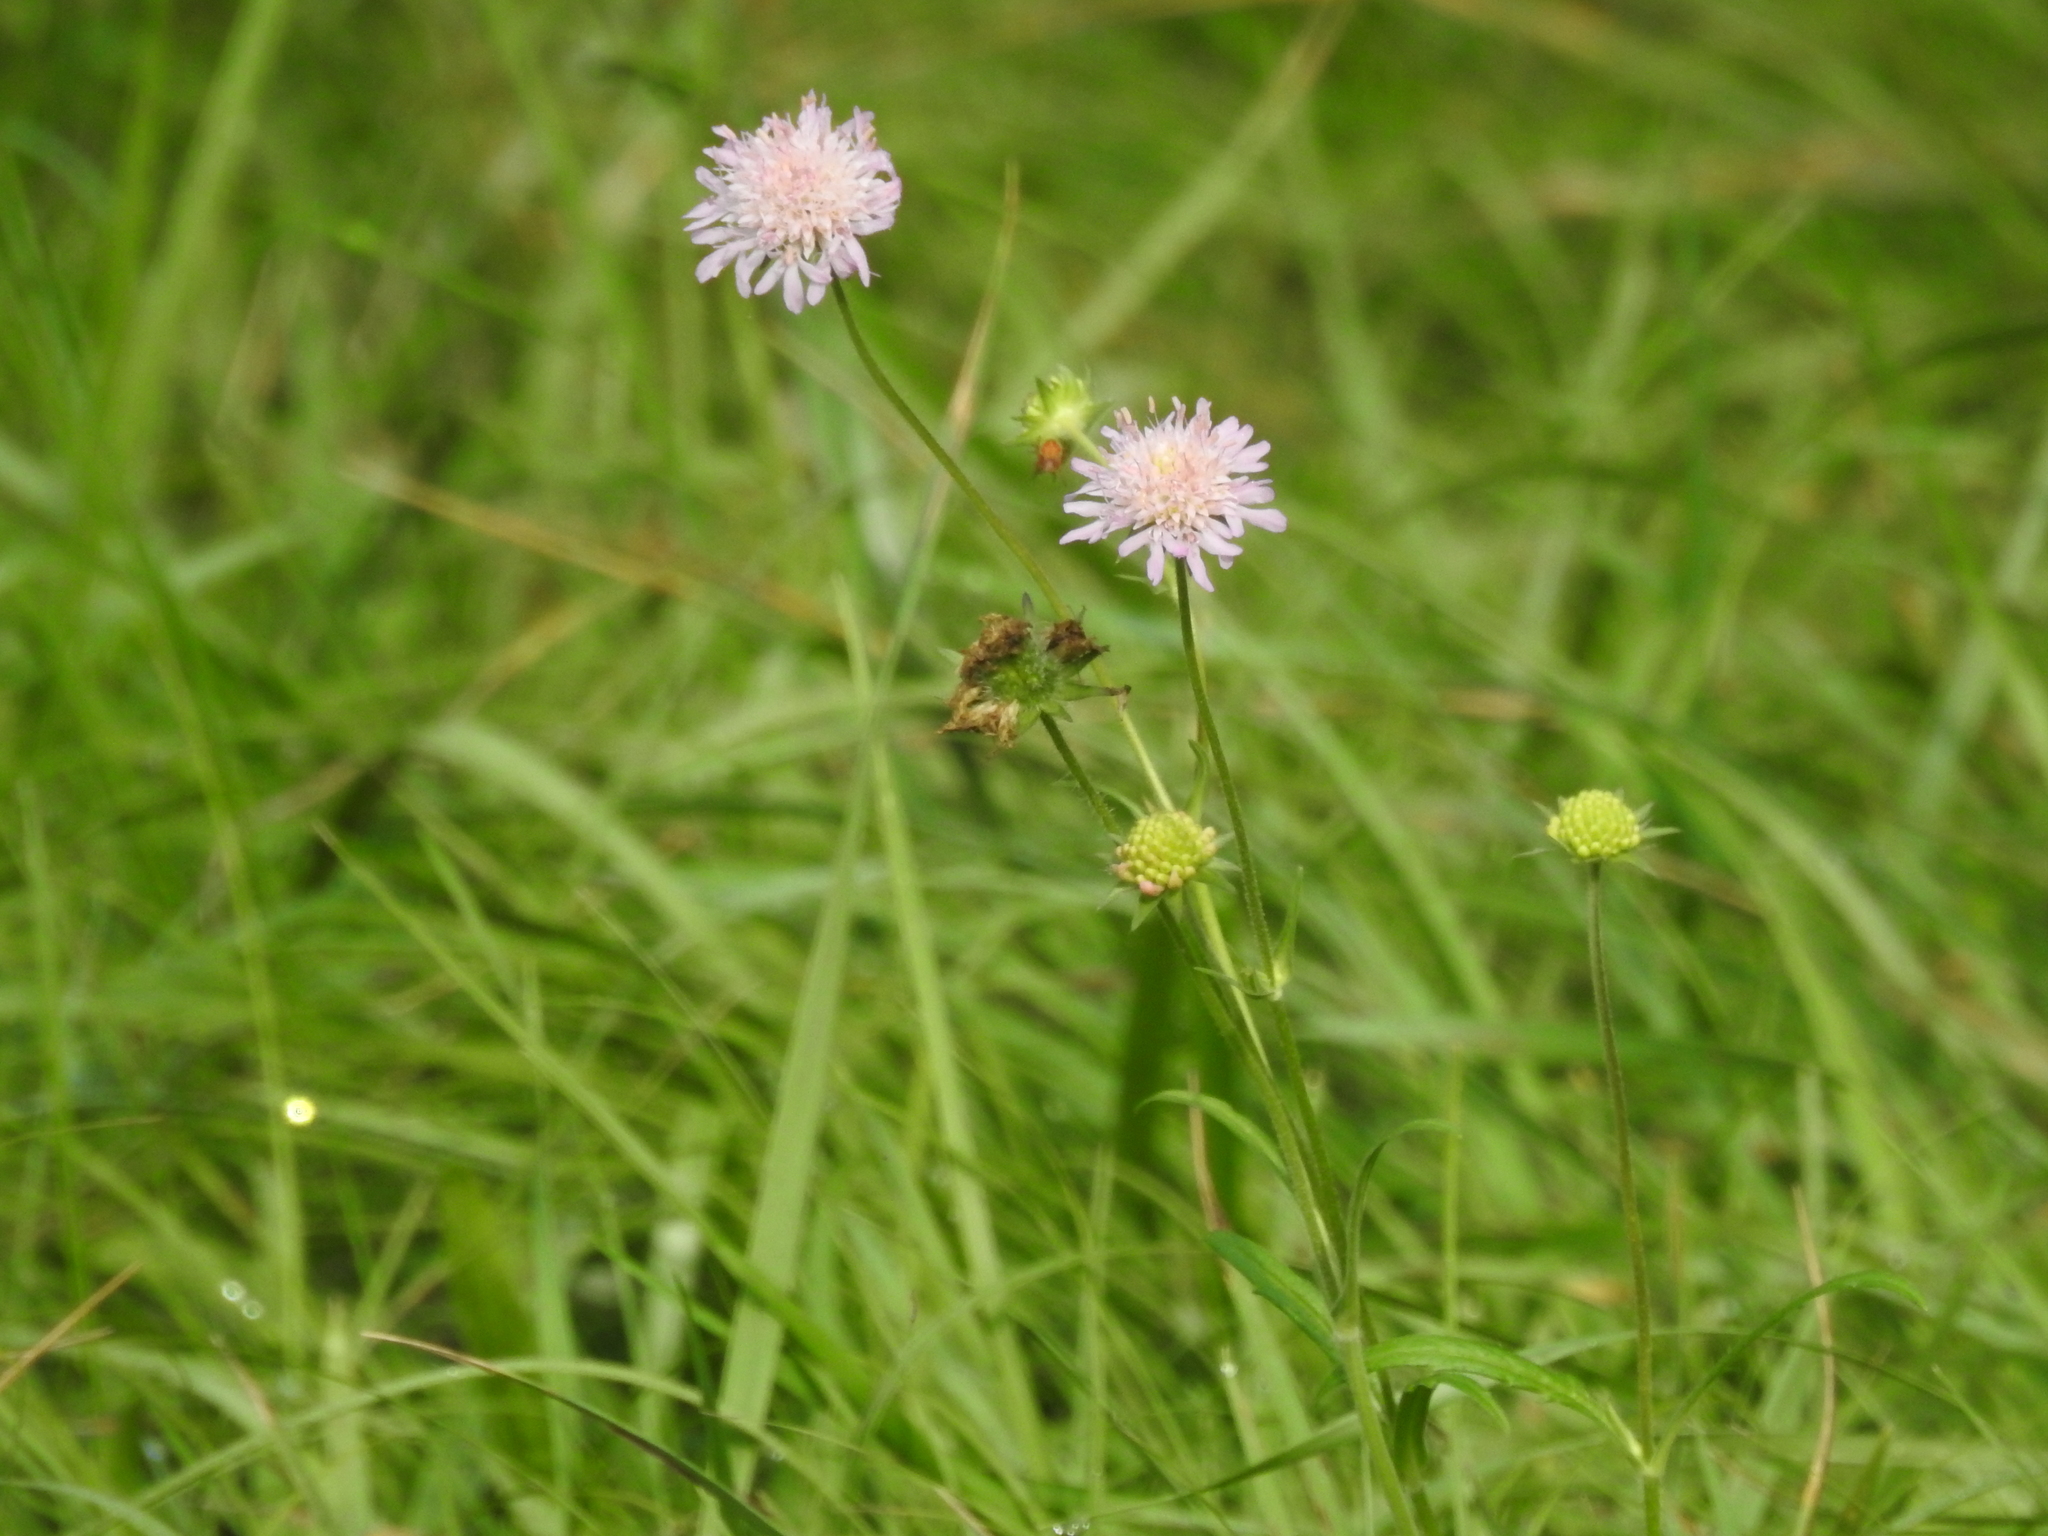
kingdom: Plantae
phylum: Tracheophyta
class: Magnoliopsida
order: Dipsacales
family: Caprifoliaceae
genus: Knautia
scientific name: Knautia arvensis
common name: Field scabiosa
